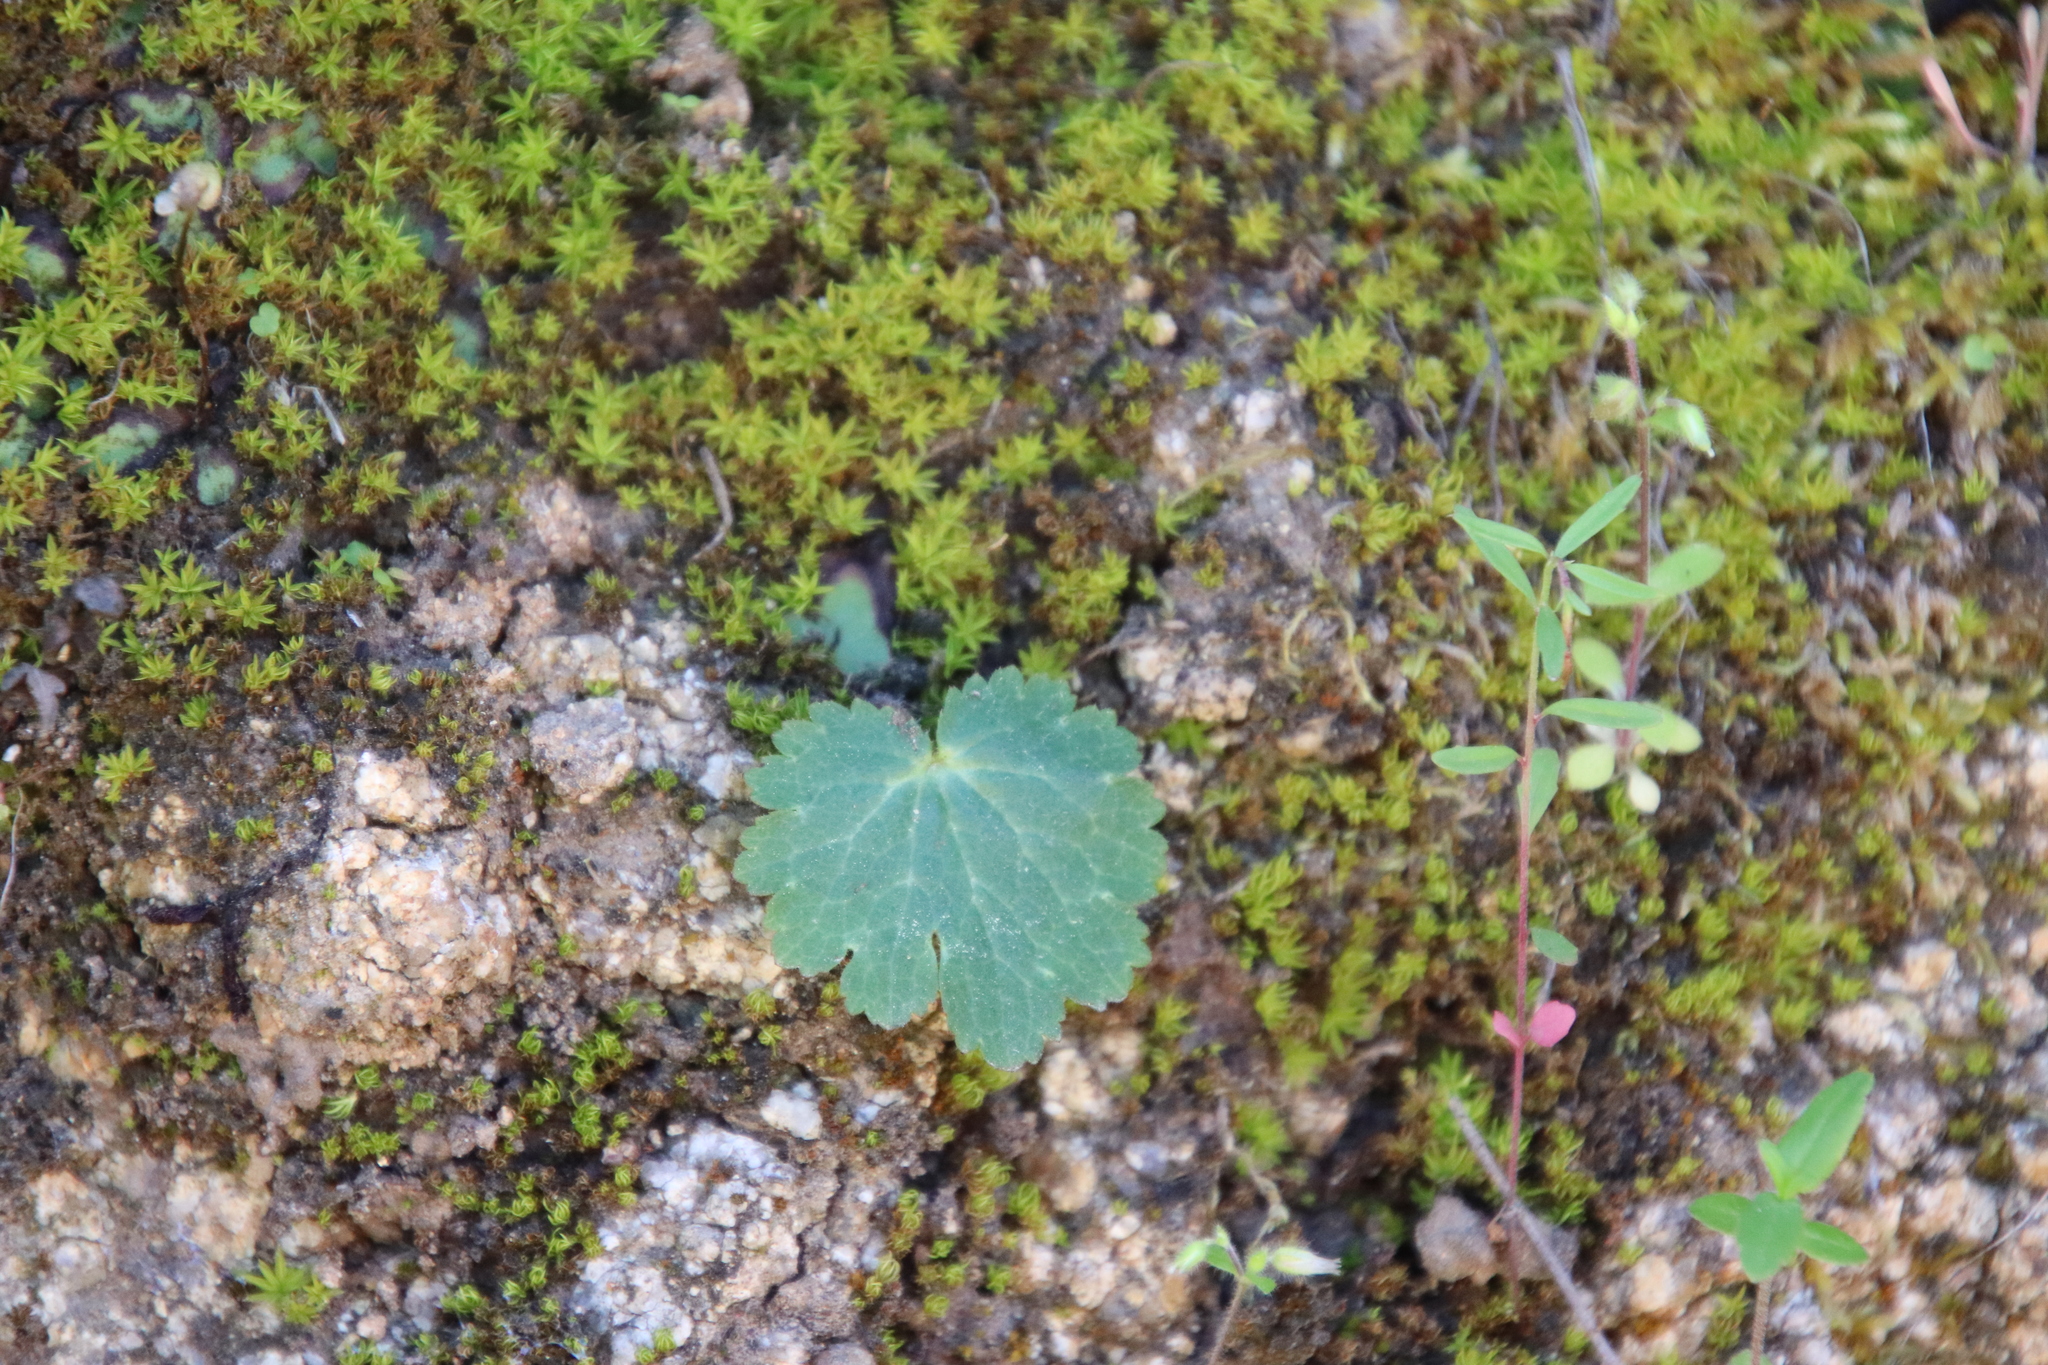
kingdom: Plantae
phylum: Tracheophyta
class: Magnoliopsida
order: Saxifragales
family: Saxifragaceae
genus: Jepsonia
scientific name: Jepsonia parryi
